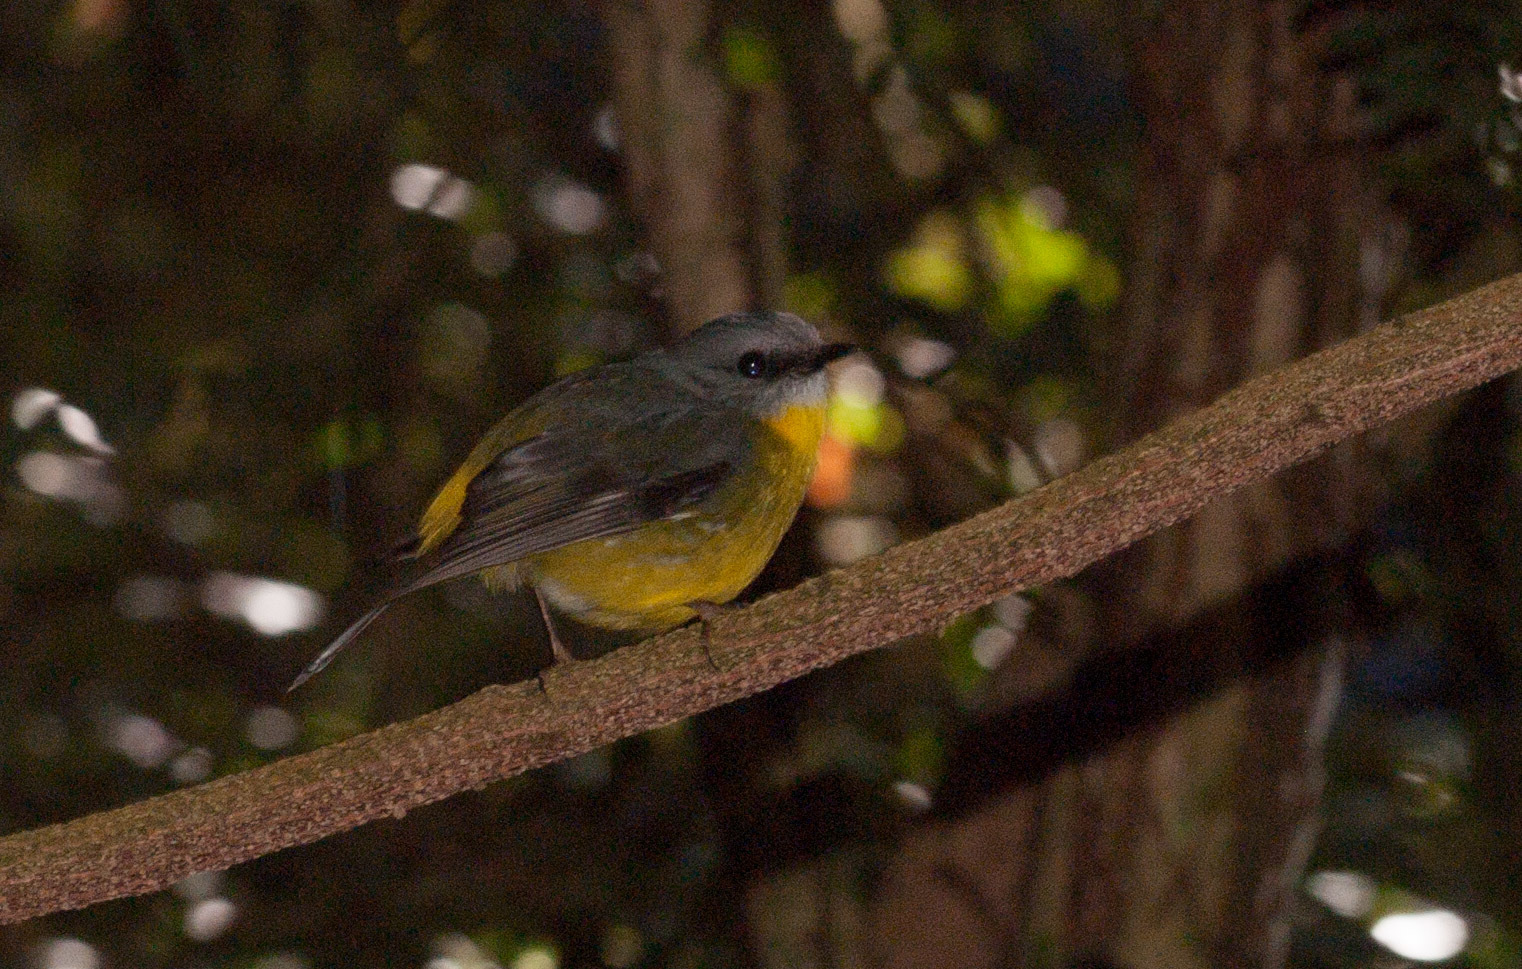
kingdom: Animalia
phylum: Chordata
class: Aves
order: Passeriformes
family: Petroicidae
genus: Eopsaltria
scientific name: Eopsaltria australis
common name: Eastern yellow robin
